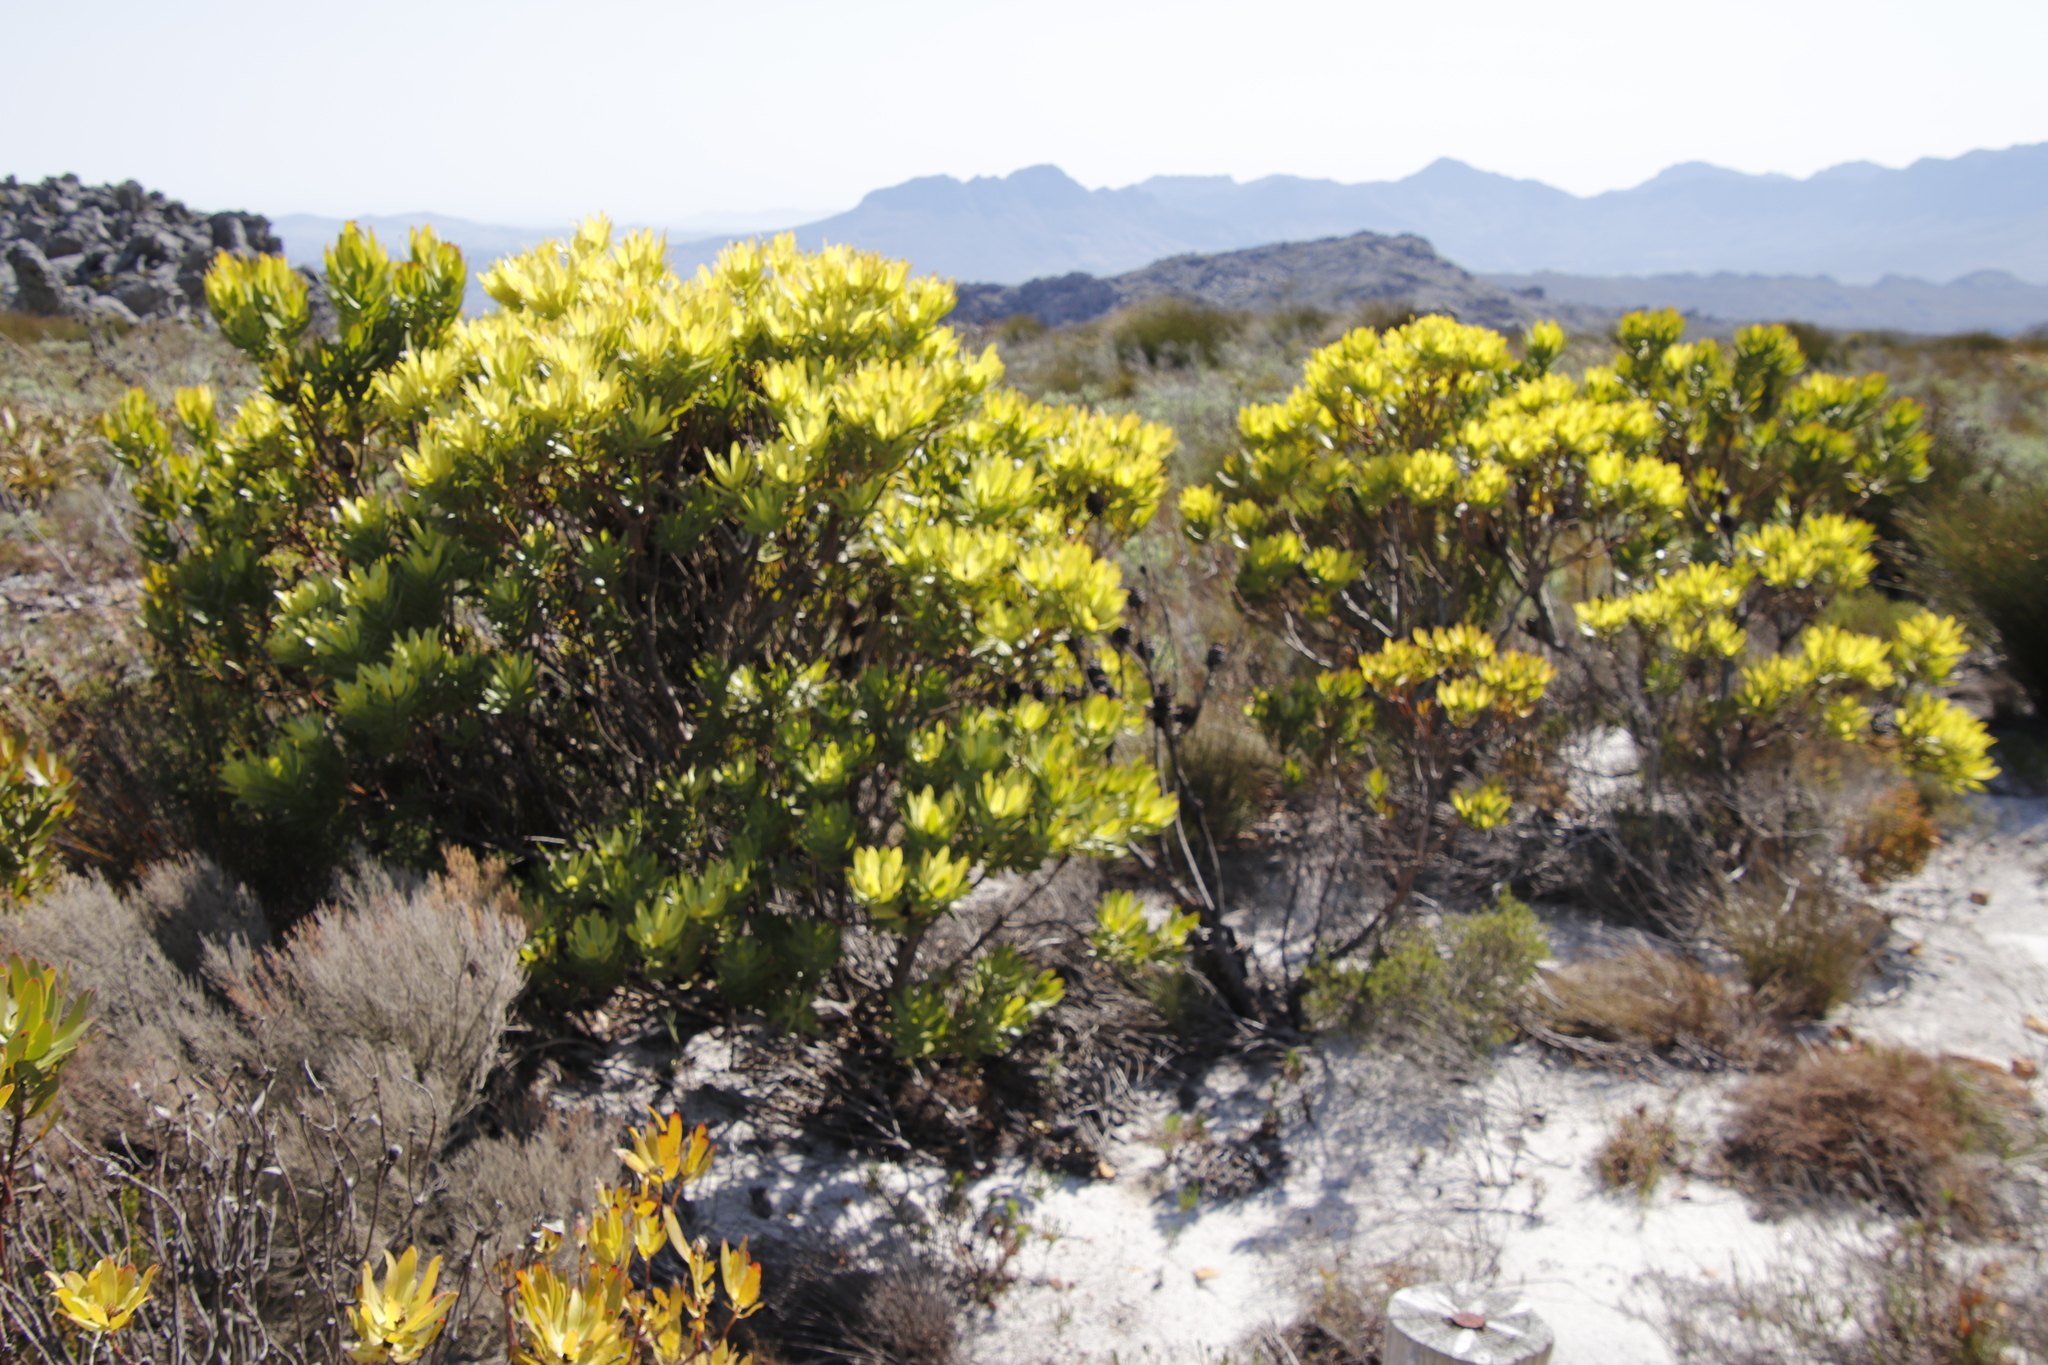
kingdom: Plantae
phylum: Tracheophyta
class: Magnoliopsida
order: Proteales
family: Proteaceae
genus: Leucadendron
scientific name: Leucadendron gandogeri
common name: Broad-leaf conebush
